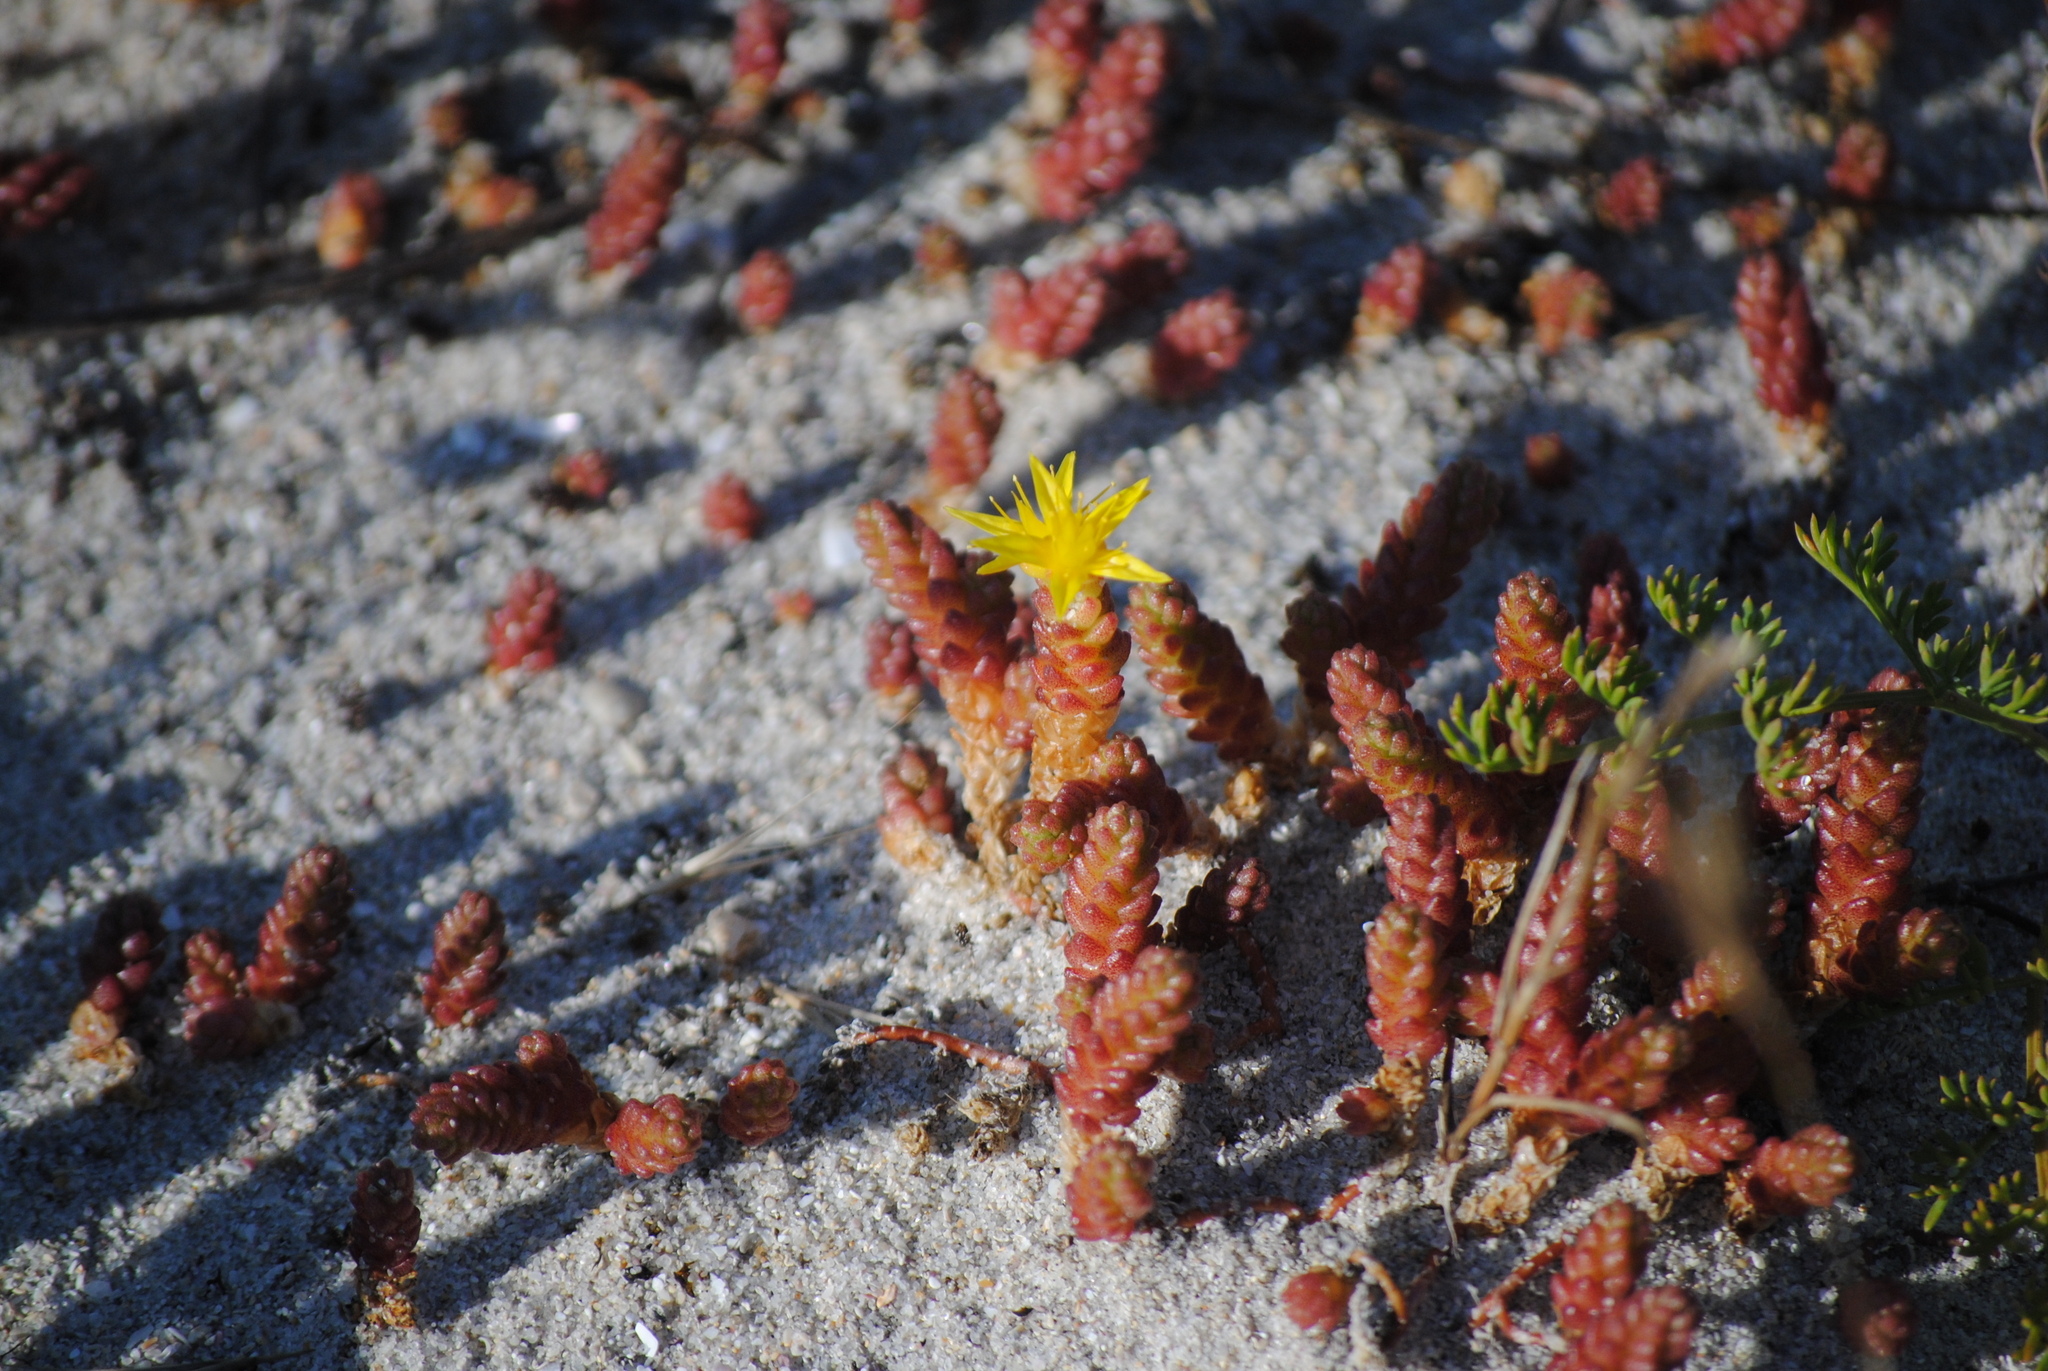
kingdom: Plantae
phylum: Tracheophyta
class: Magnoliopsida
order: Saxifragales
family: Crassulaceae
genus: Sedum
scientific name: Sedum acre
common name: Biting stonecrop
